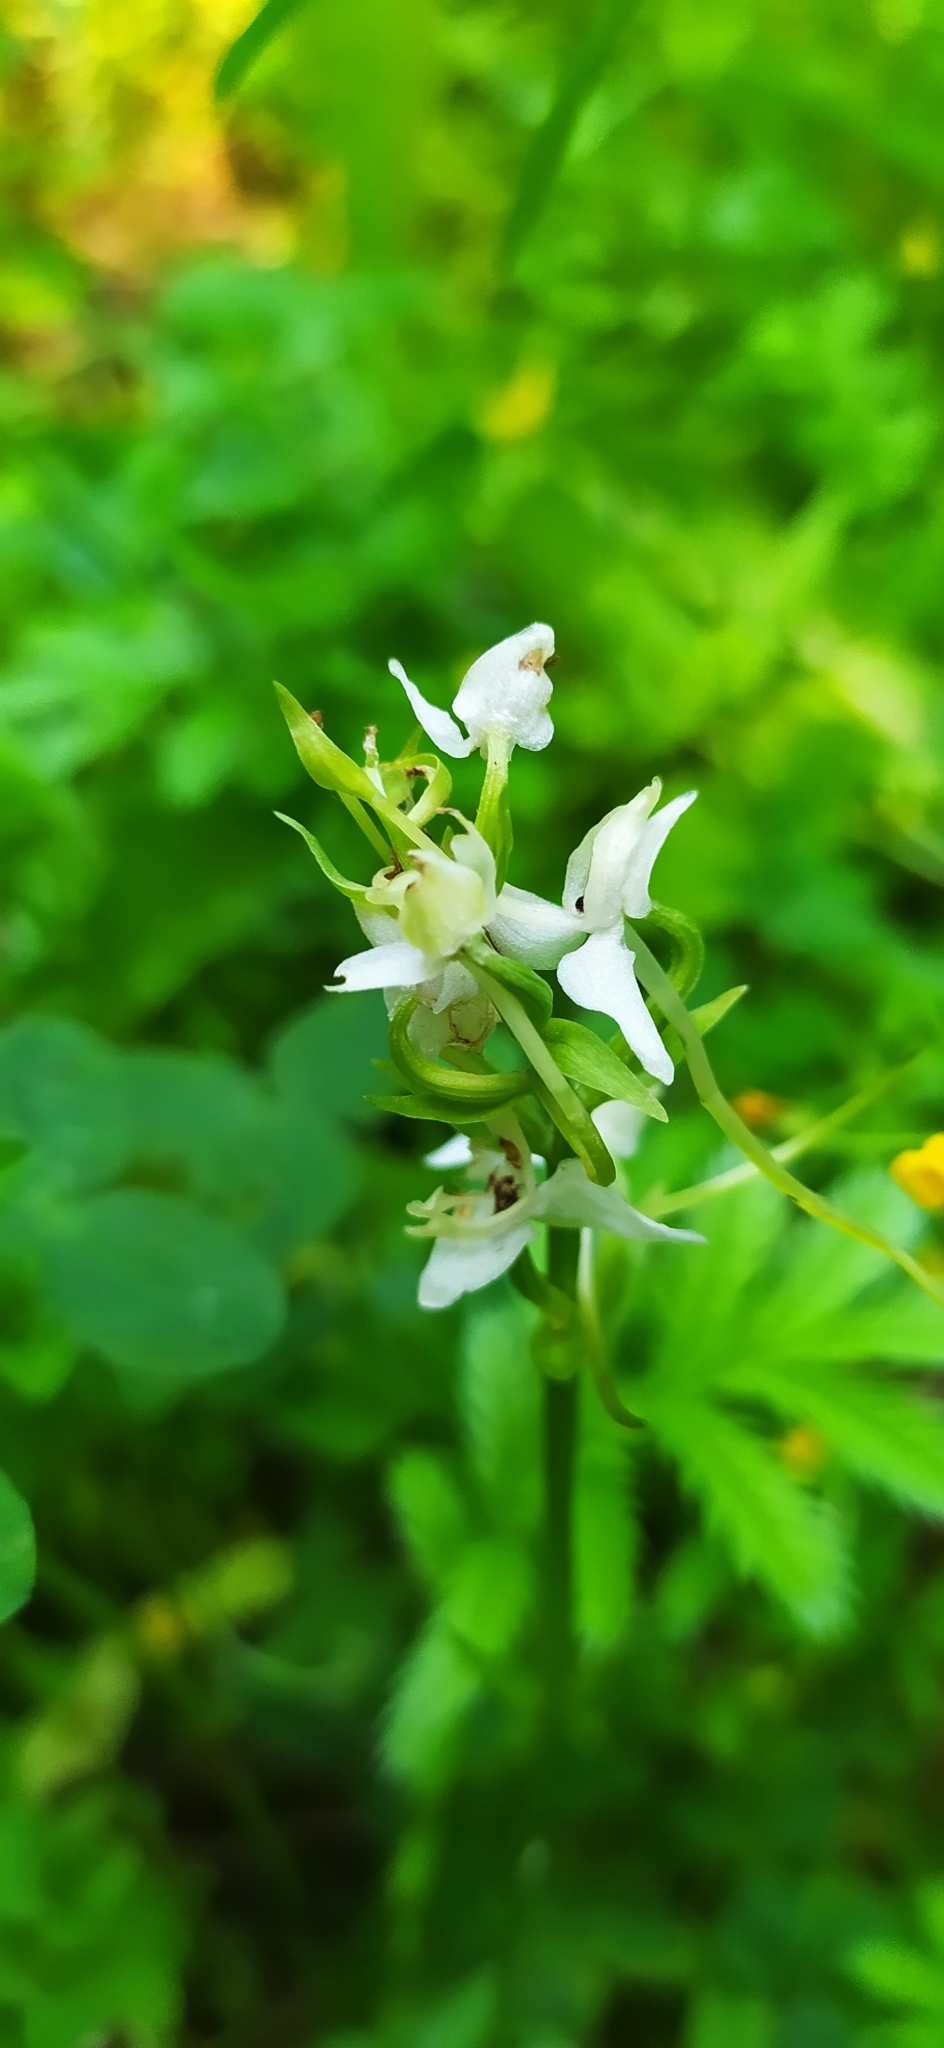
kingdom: Plantae
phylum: Tracheophyta
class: Liliopsida
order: Asparagales
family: Orchidaceae
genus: Platanthera
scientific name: Platanthera bifolia
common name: Lesser butterfly-orchid
